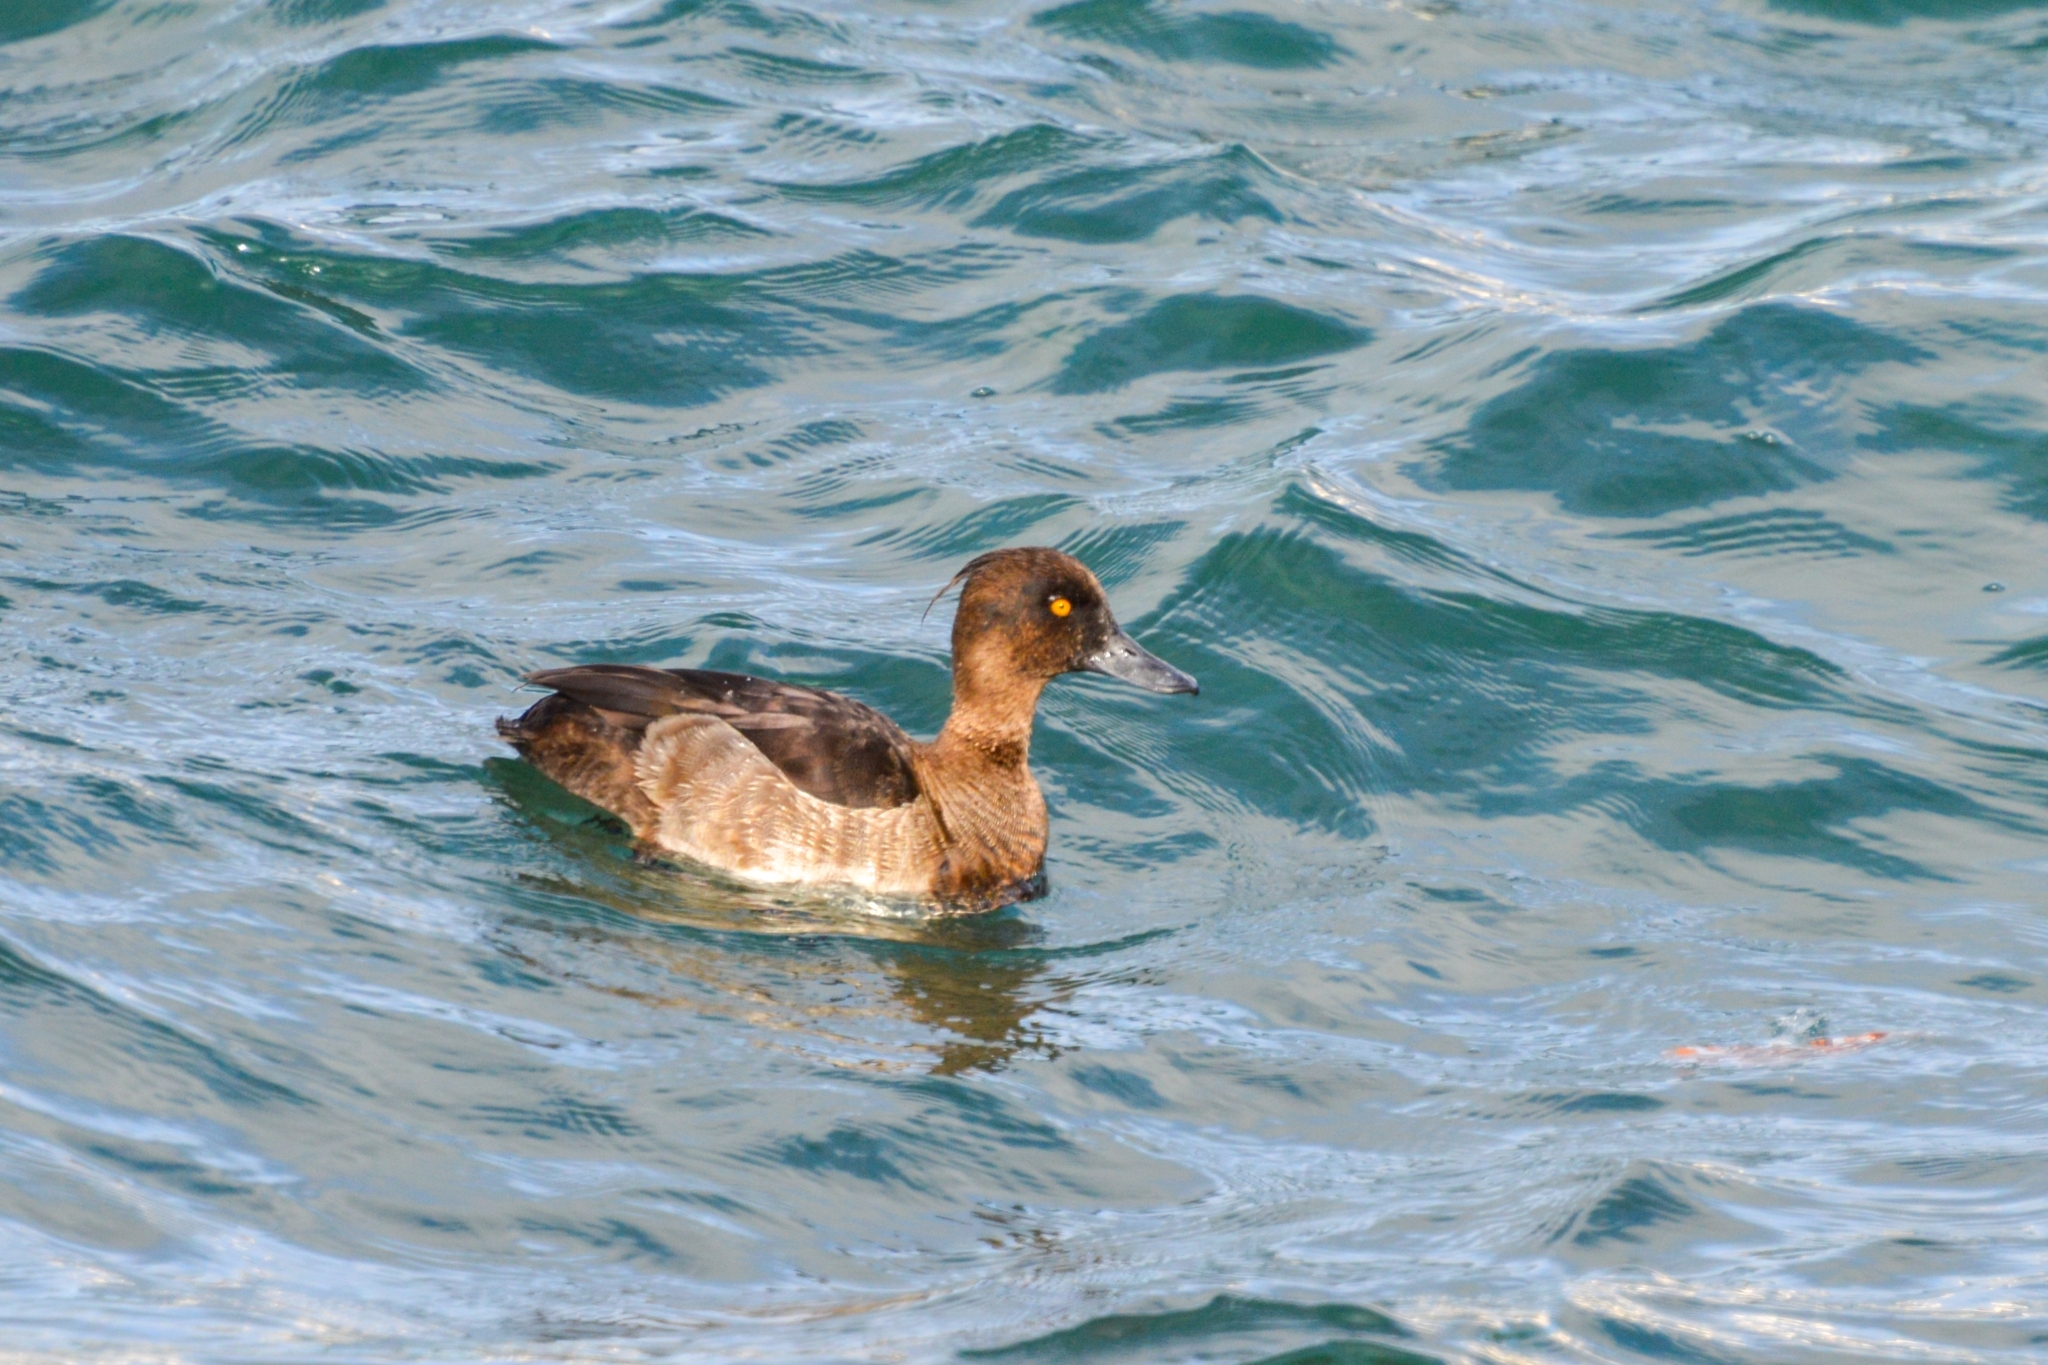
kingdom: Animalia
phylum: Chordata
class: Aves
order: Anseriformes
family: Anatidae
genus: Aythya
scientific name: Aythya fuligula
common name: Tufted duck
